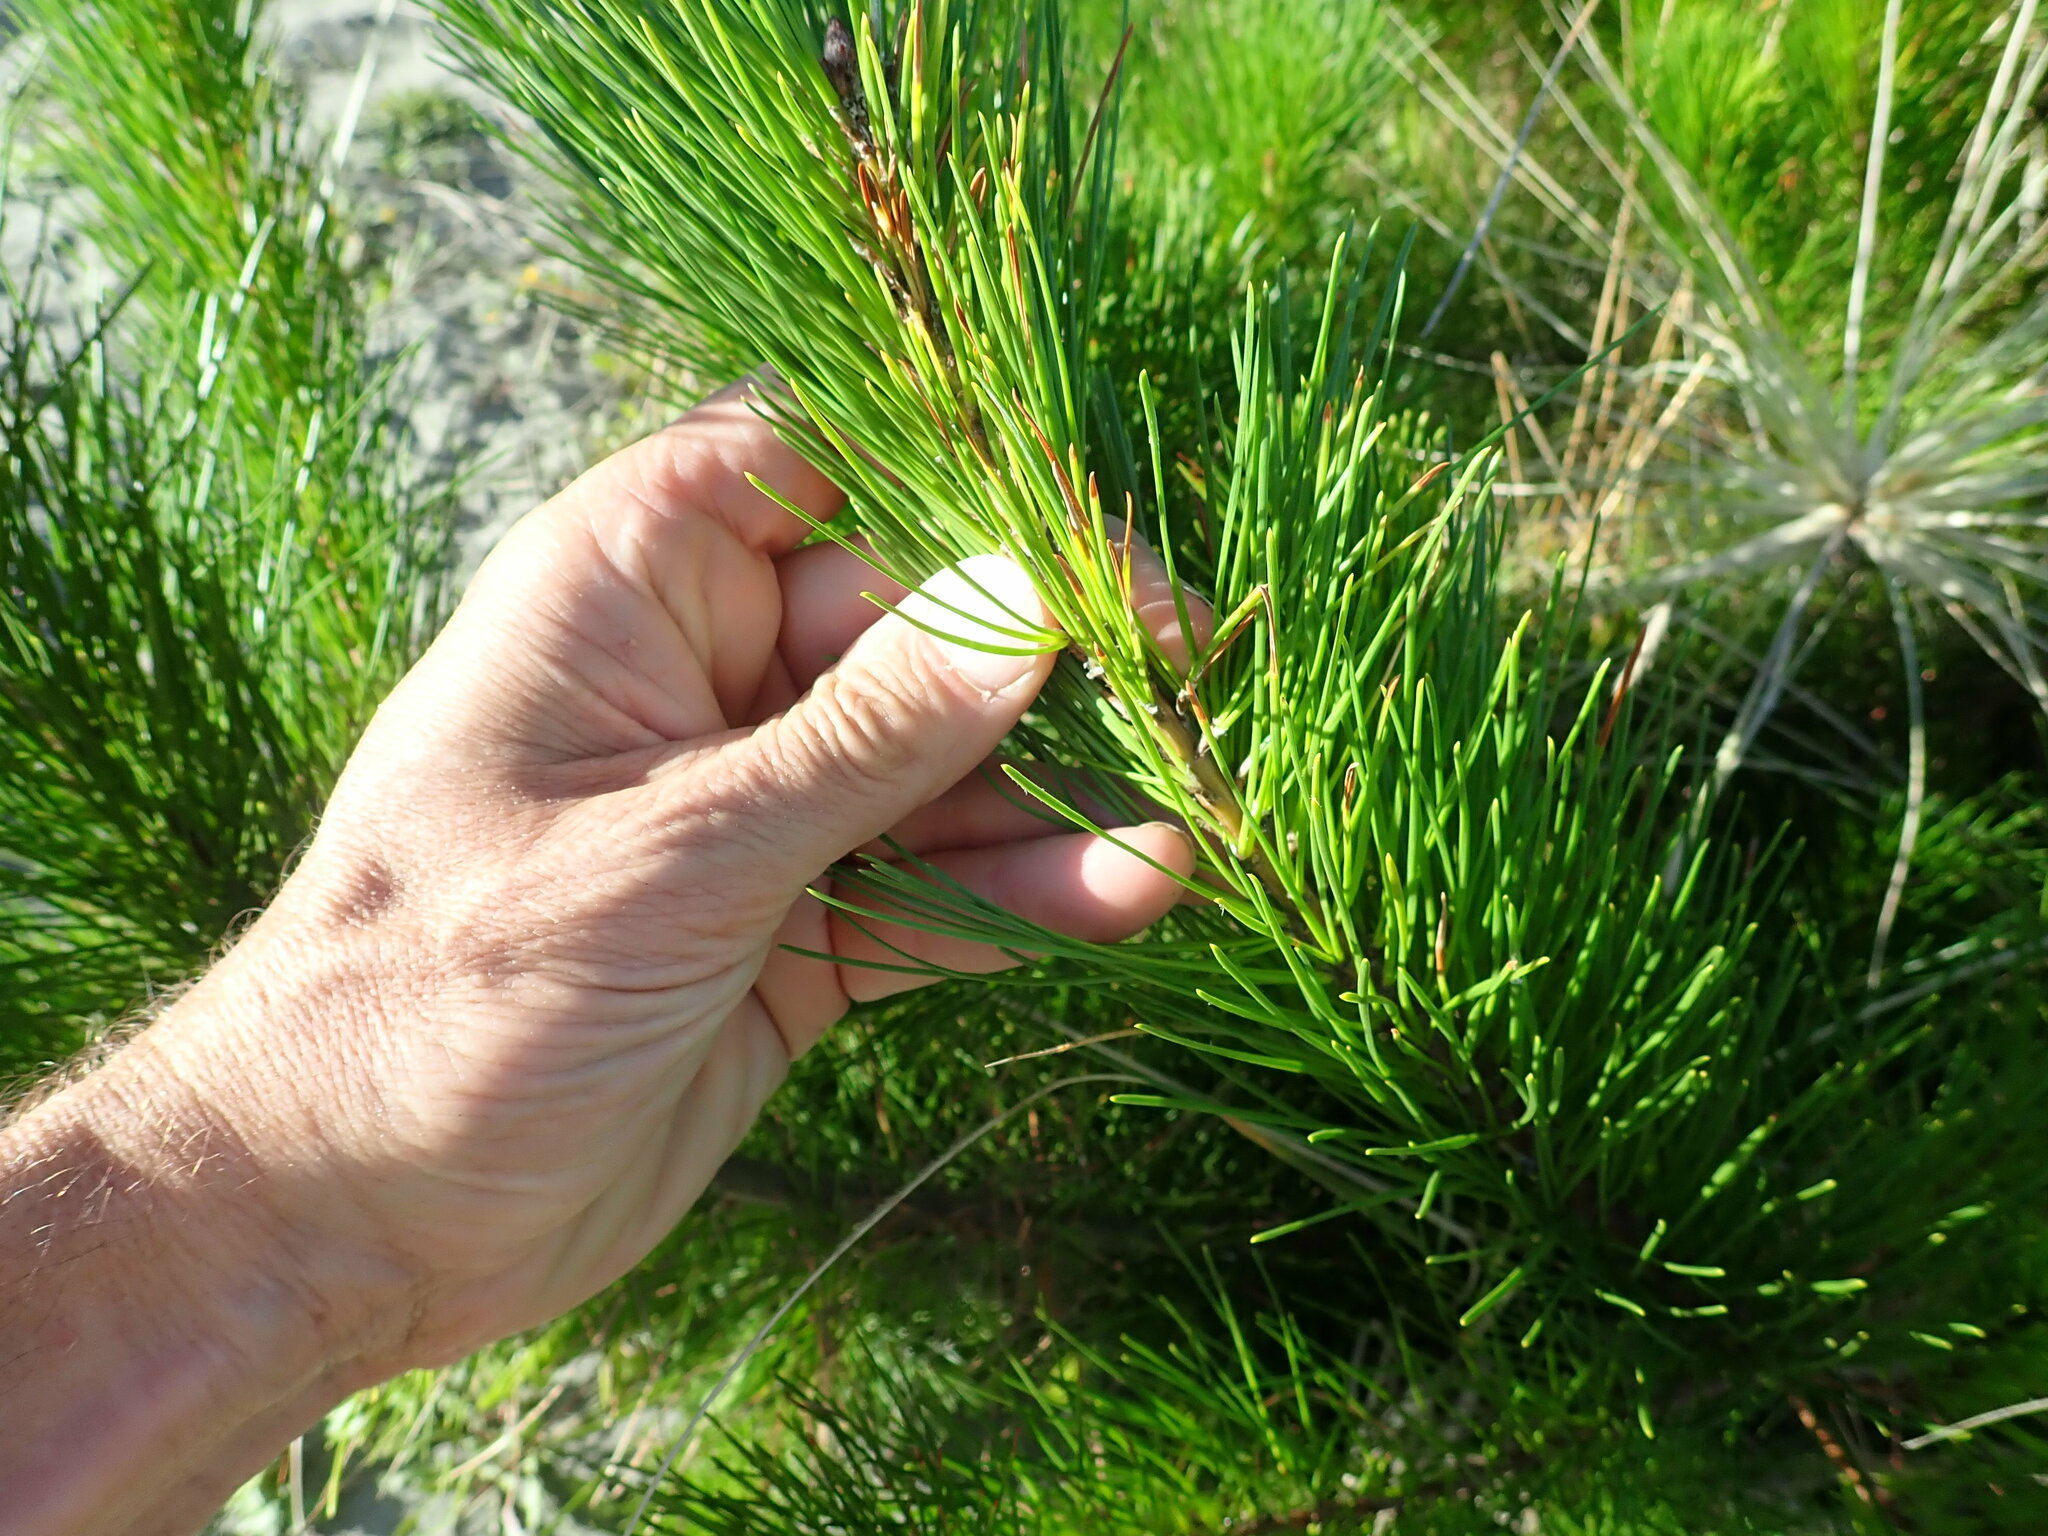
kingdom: Plantae
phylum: Tracheophyta
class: Pinopsida
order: Pinales
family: Pinaceae
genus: Pinus
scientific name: Pinus radiata
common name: Monterey pine
